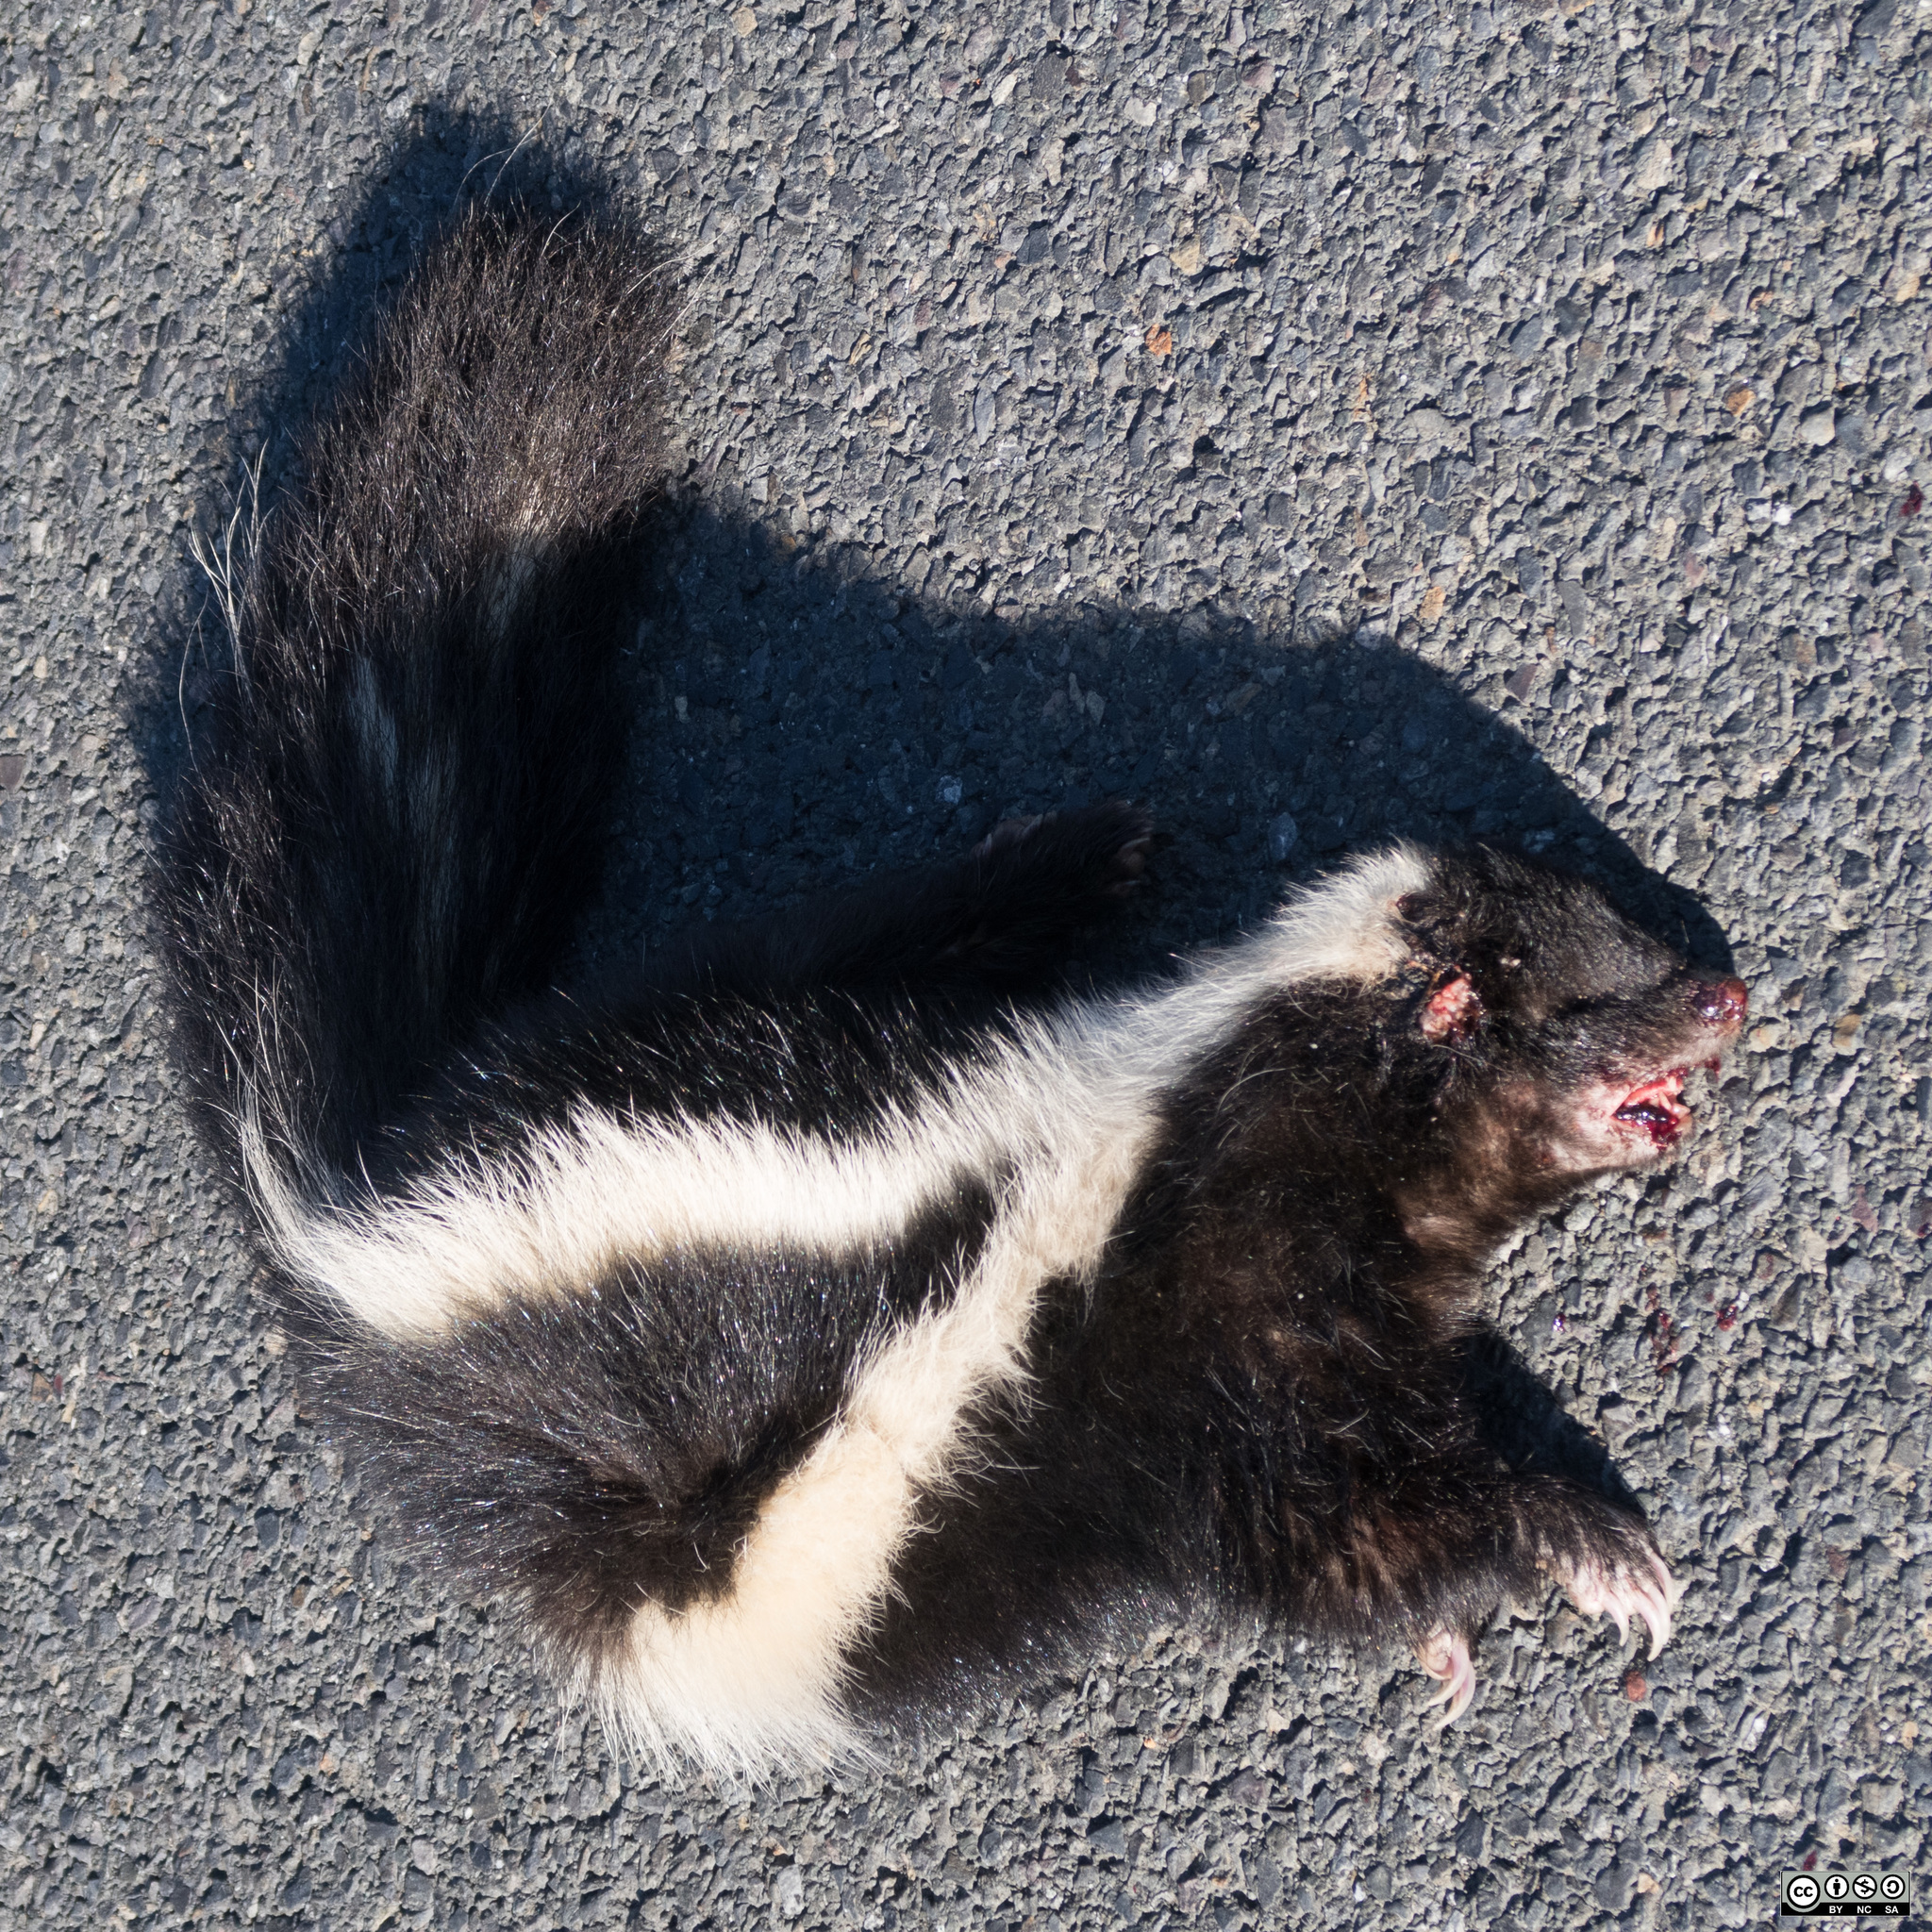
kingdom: Animalia
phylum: Chordata
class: Mammalia
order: Carnivora
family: Mephitidae
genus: Mephitis
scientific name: Mephitis mephitis
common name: Striped skunk
